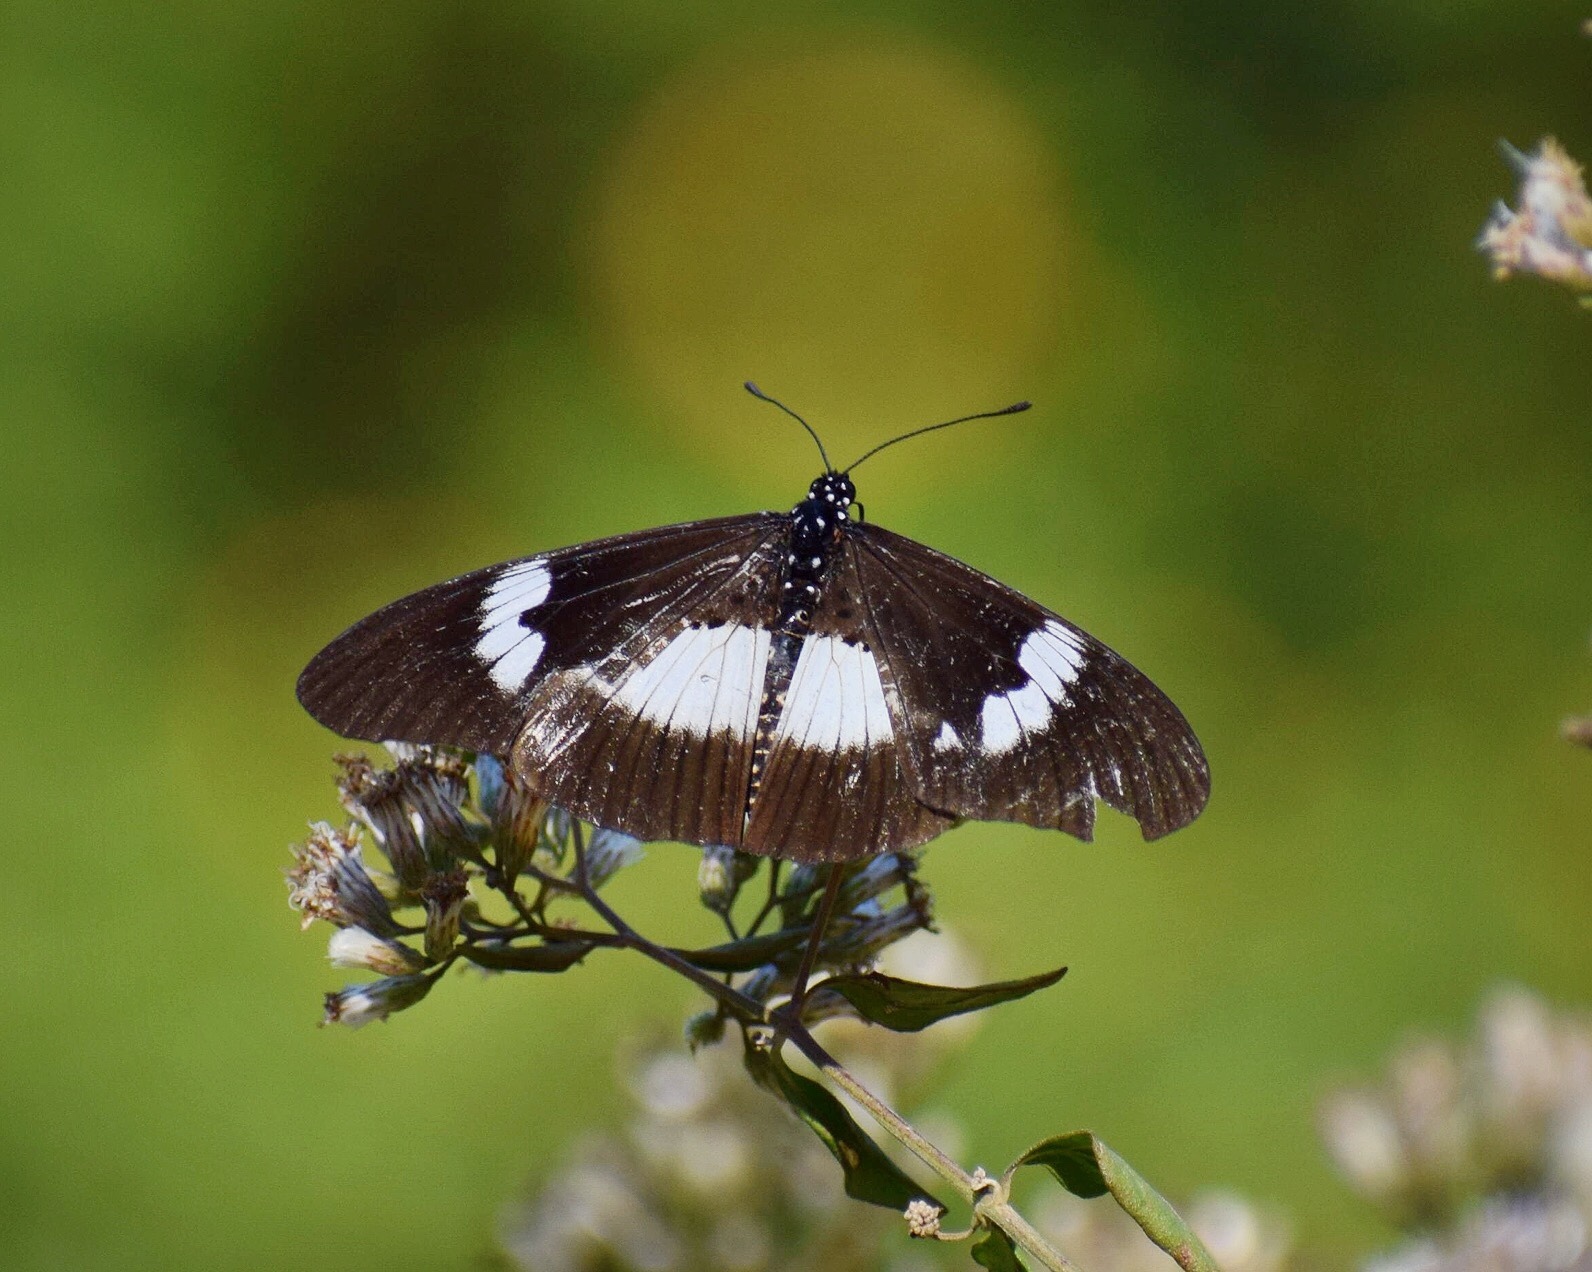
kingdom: Animalia
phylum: Arthropoda
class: Insecta
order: Lepidoptera
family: Nymphalidae
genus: Acraea
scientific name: Acraea Bematistes aganice
